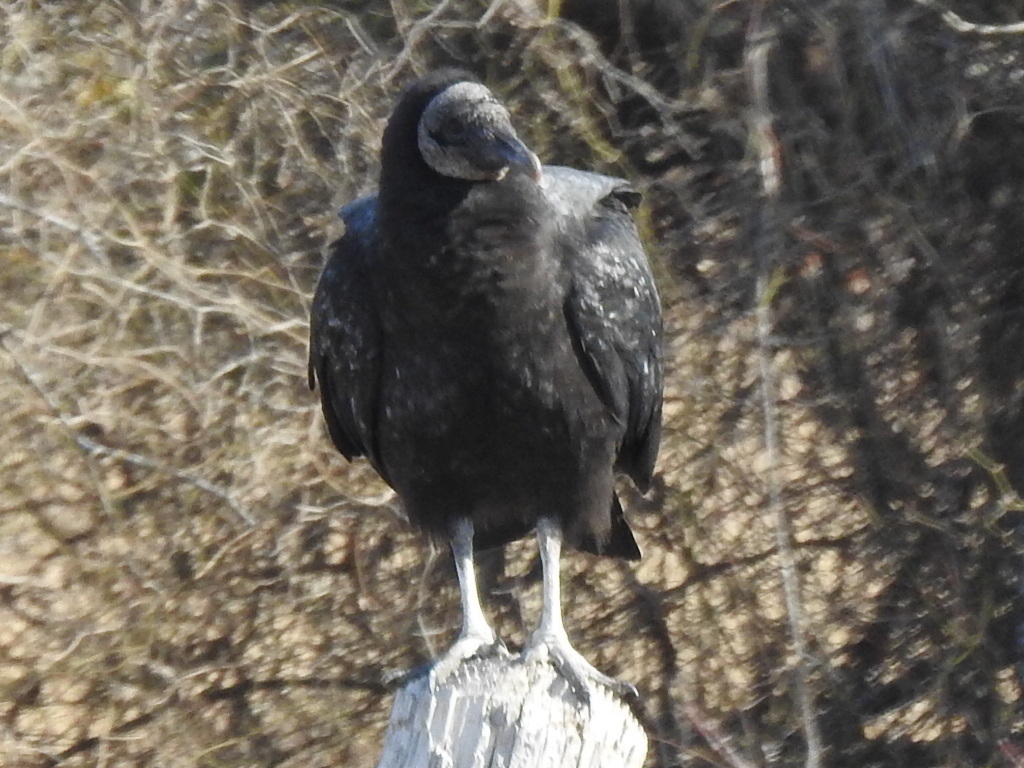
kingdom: Animalia
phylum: Chordata
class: Aves
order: Accipitriformes
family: Cathartidae
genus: Coragyps
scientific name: Coragyps atratus
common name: Black vulture
